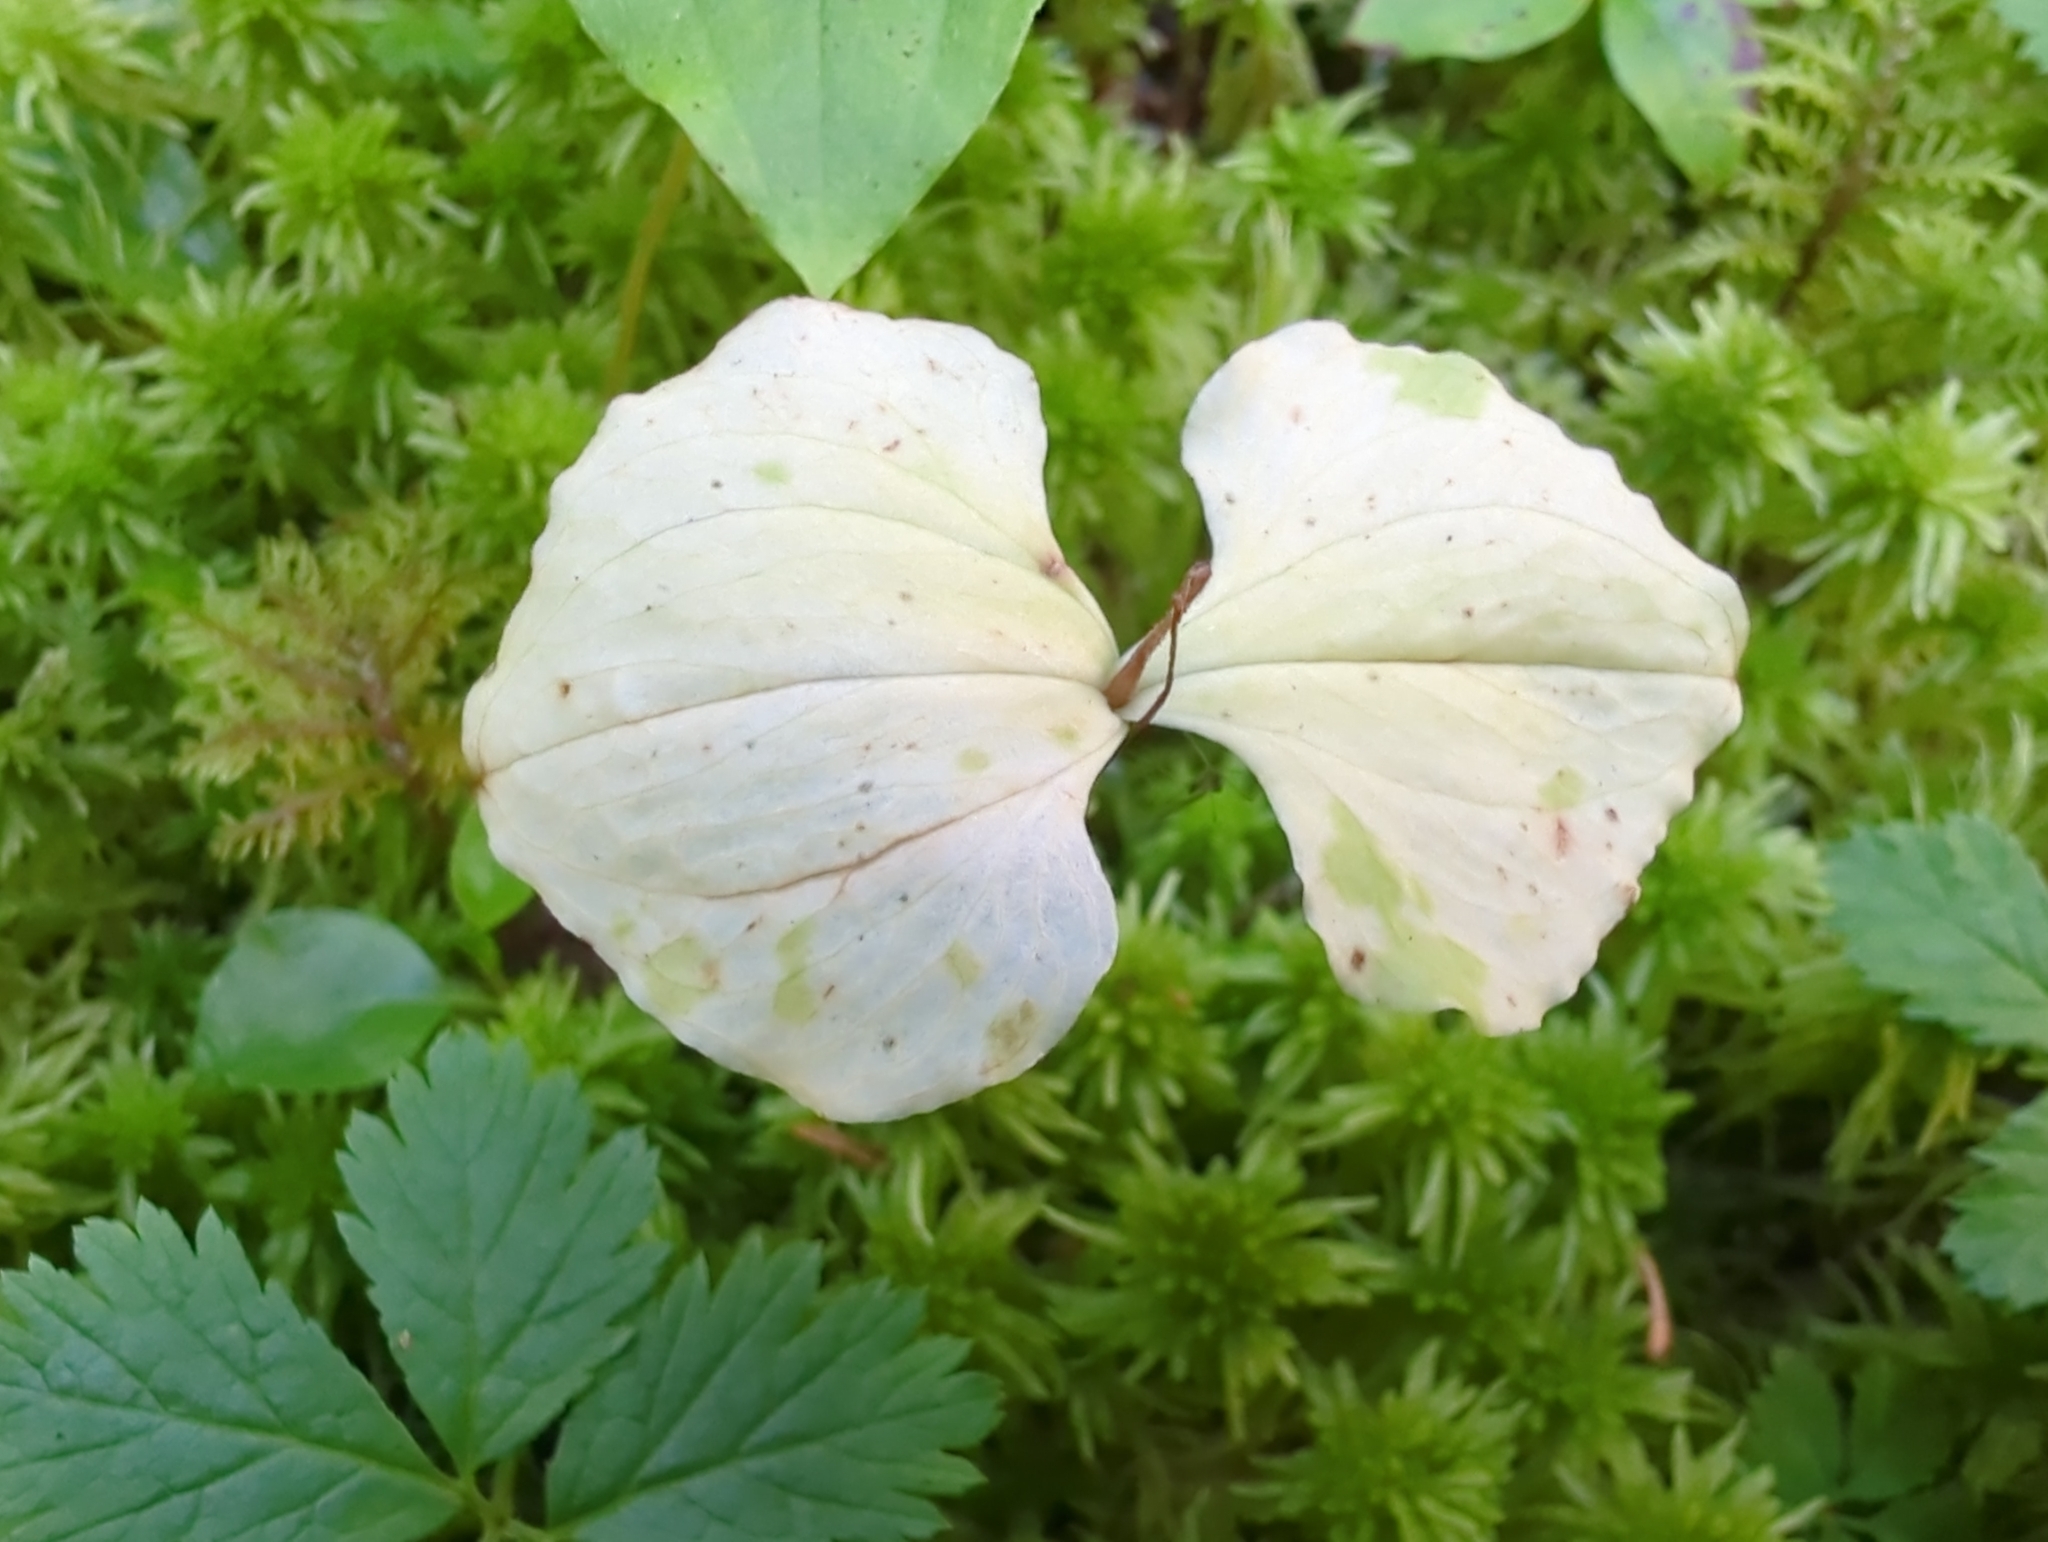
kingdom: Plantae
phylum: Tracheophyta
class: Liliopsida
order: Asparagales
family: Orchidaceae
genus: Neottia
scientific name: Neottia cordata
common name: Lesser twayblade
